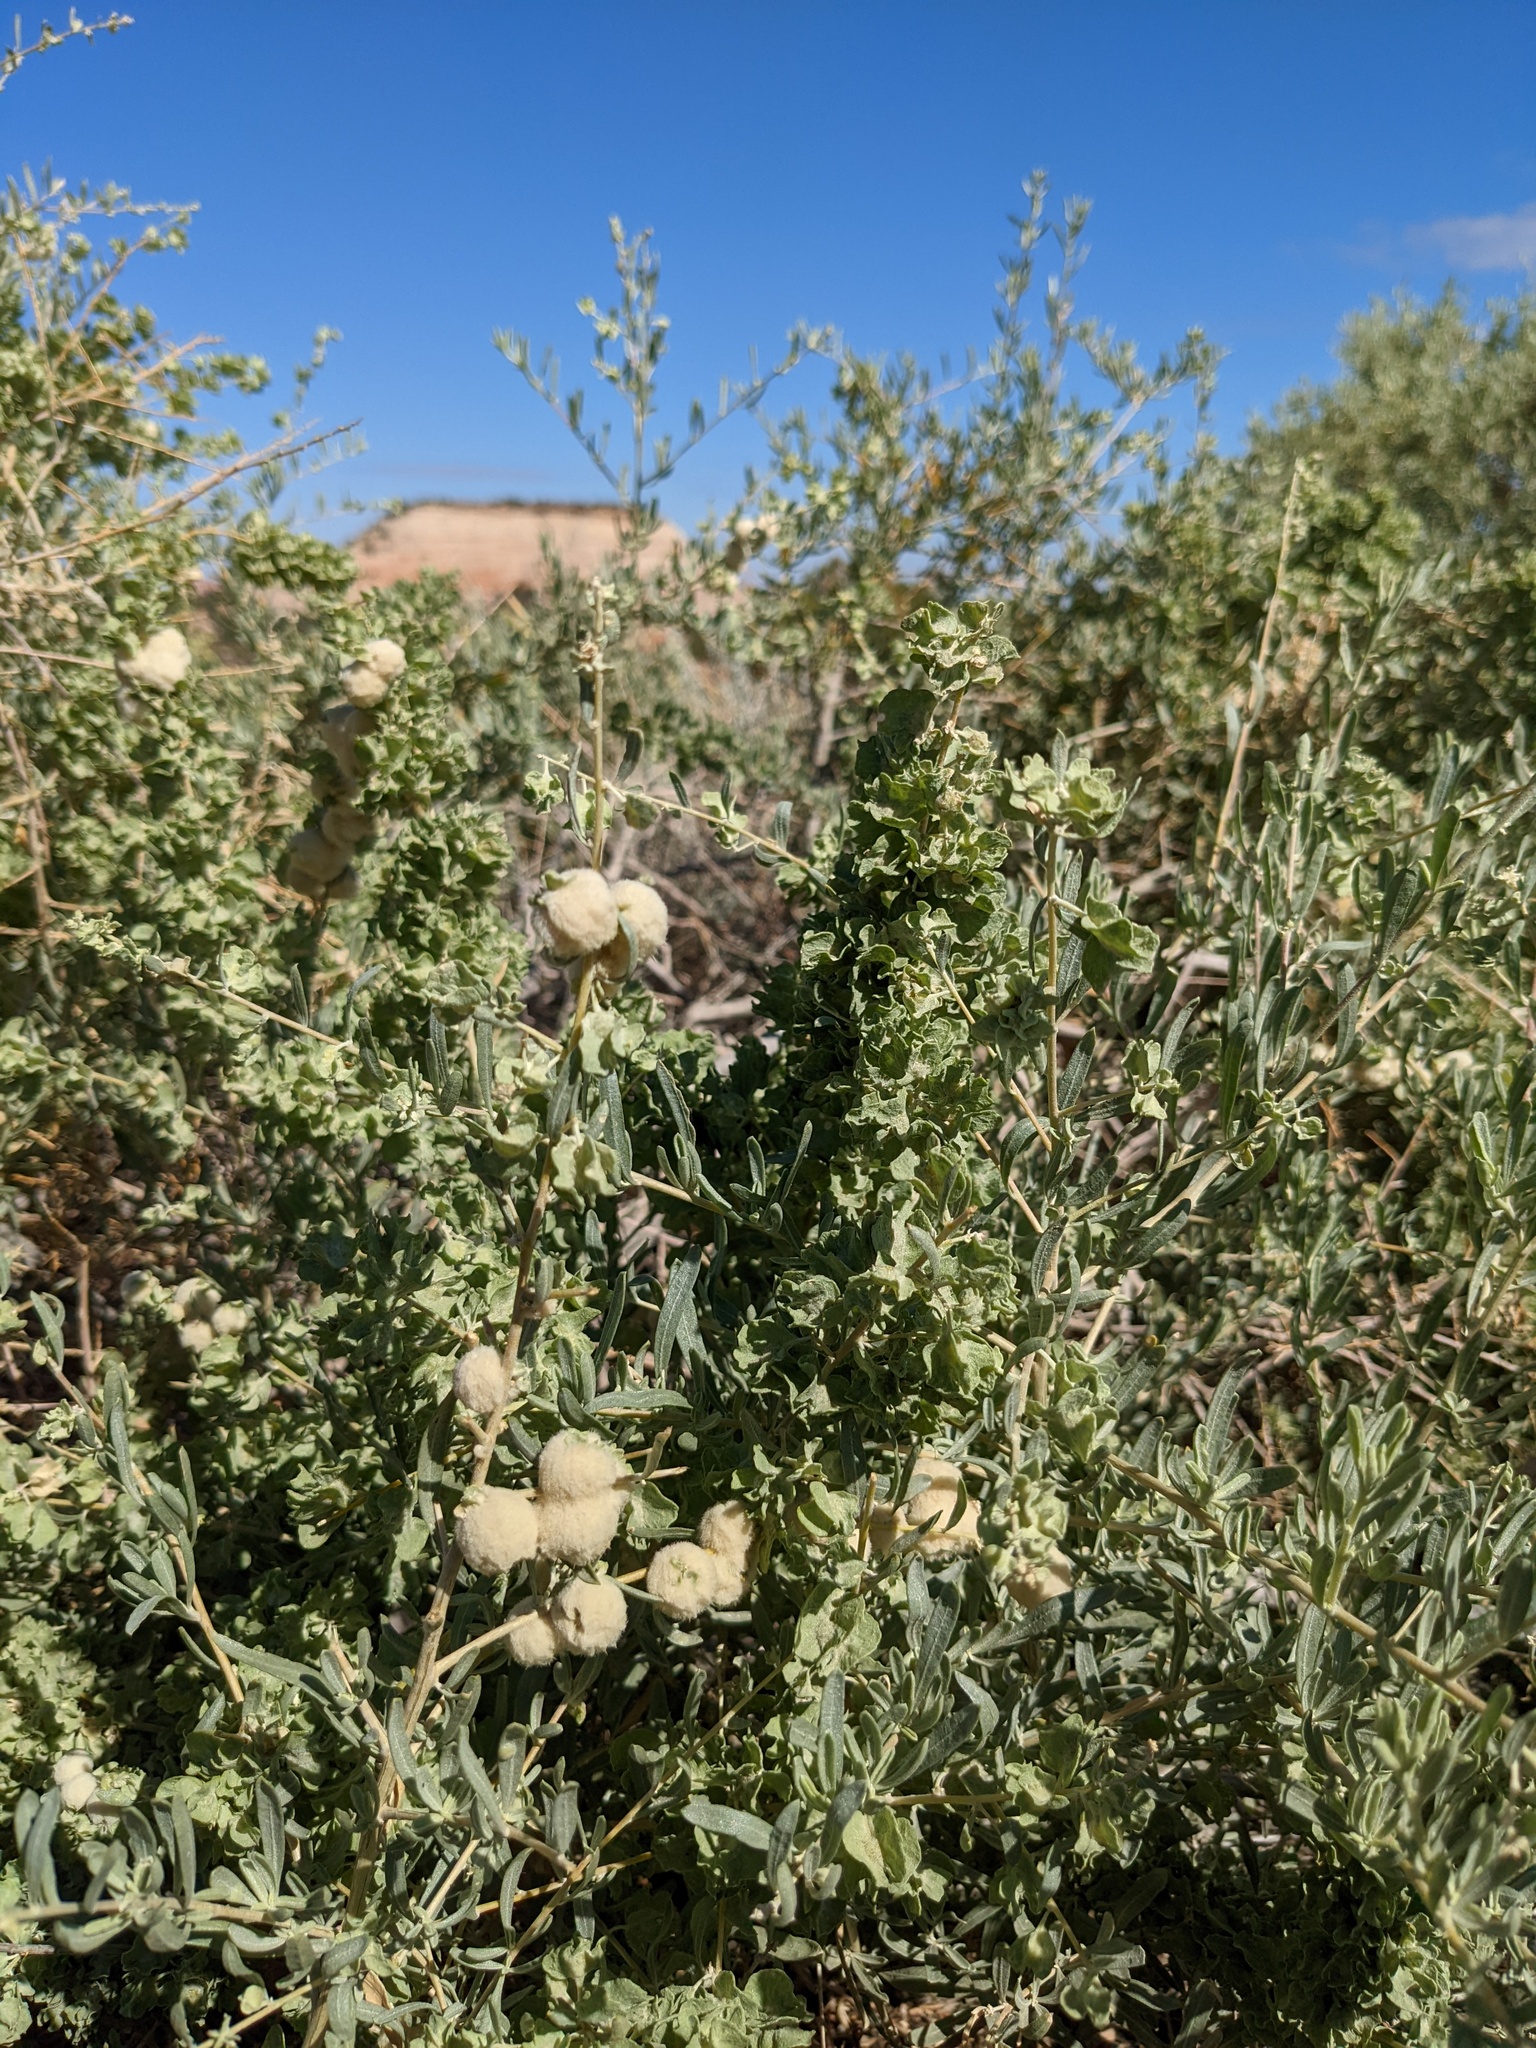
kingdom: Animalia
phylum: Arthropoda
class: Insecta
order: Diptera
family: Cecidomyiidae
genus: Asphondylia
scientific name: Asphondylia neomexicana
